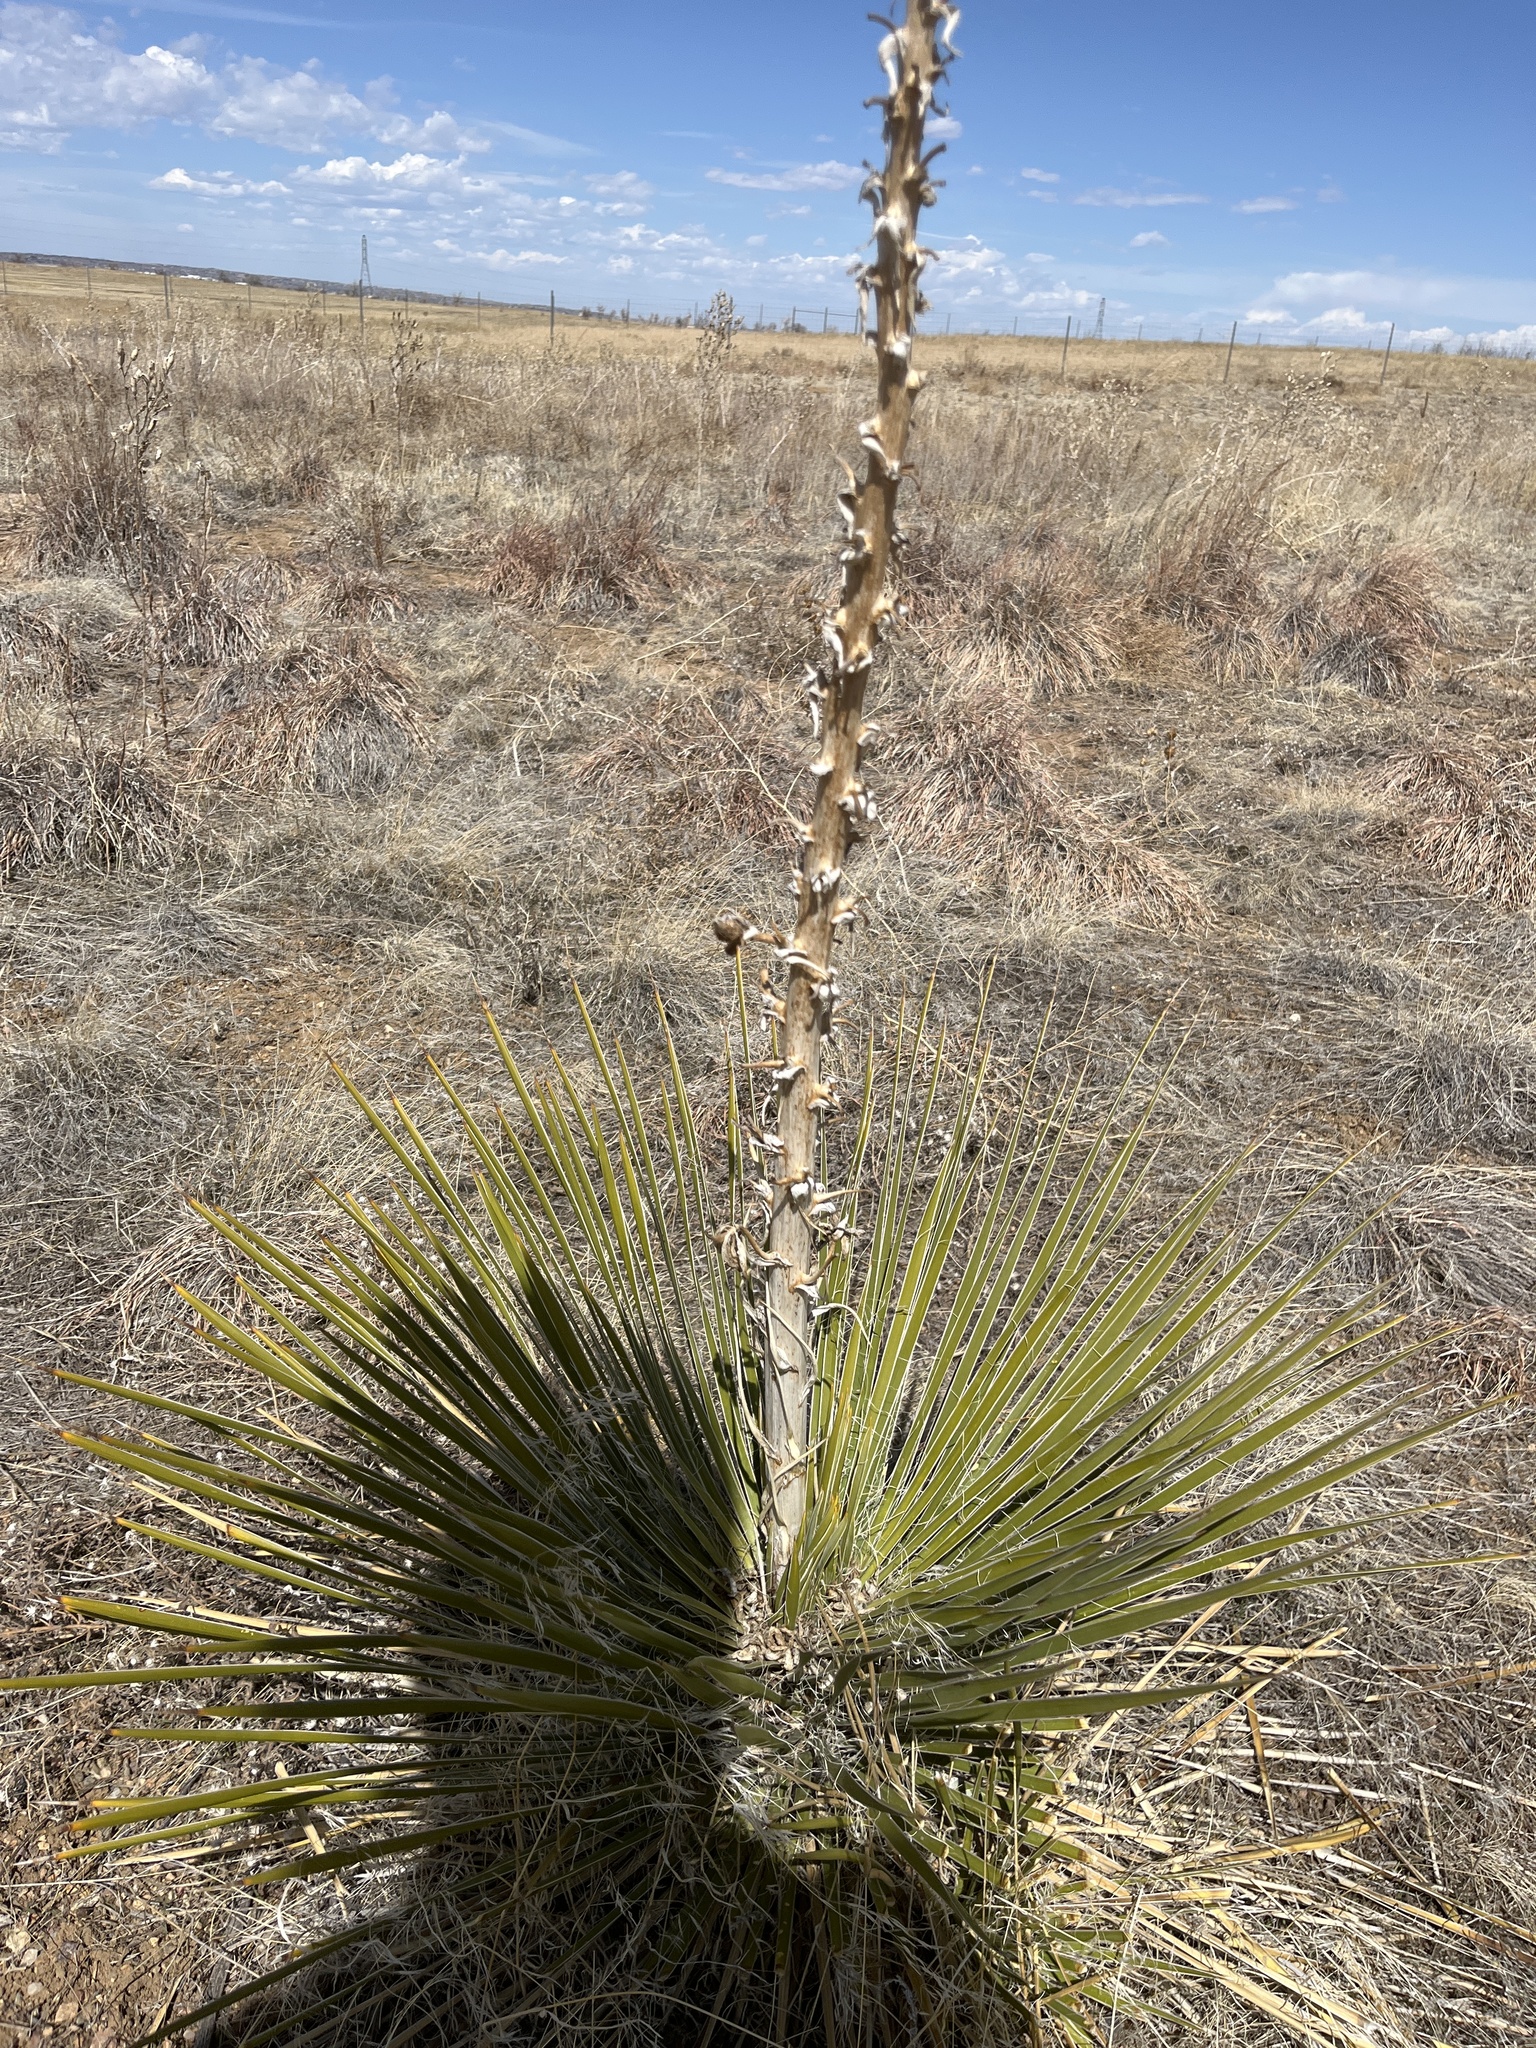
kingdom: Plantae
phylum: Tracheophyta
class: Liliopsida
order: Asparagales
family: Asparagaceae
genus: Yucca
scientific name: Yucca glauca
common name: Great plains yucca
